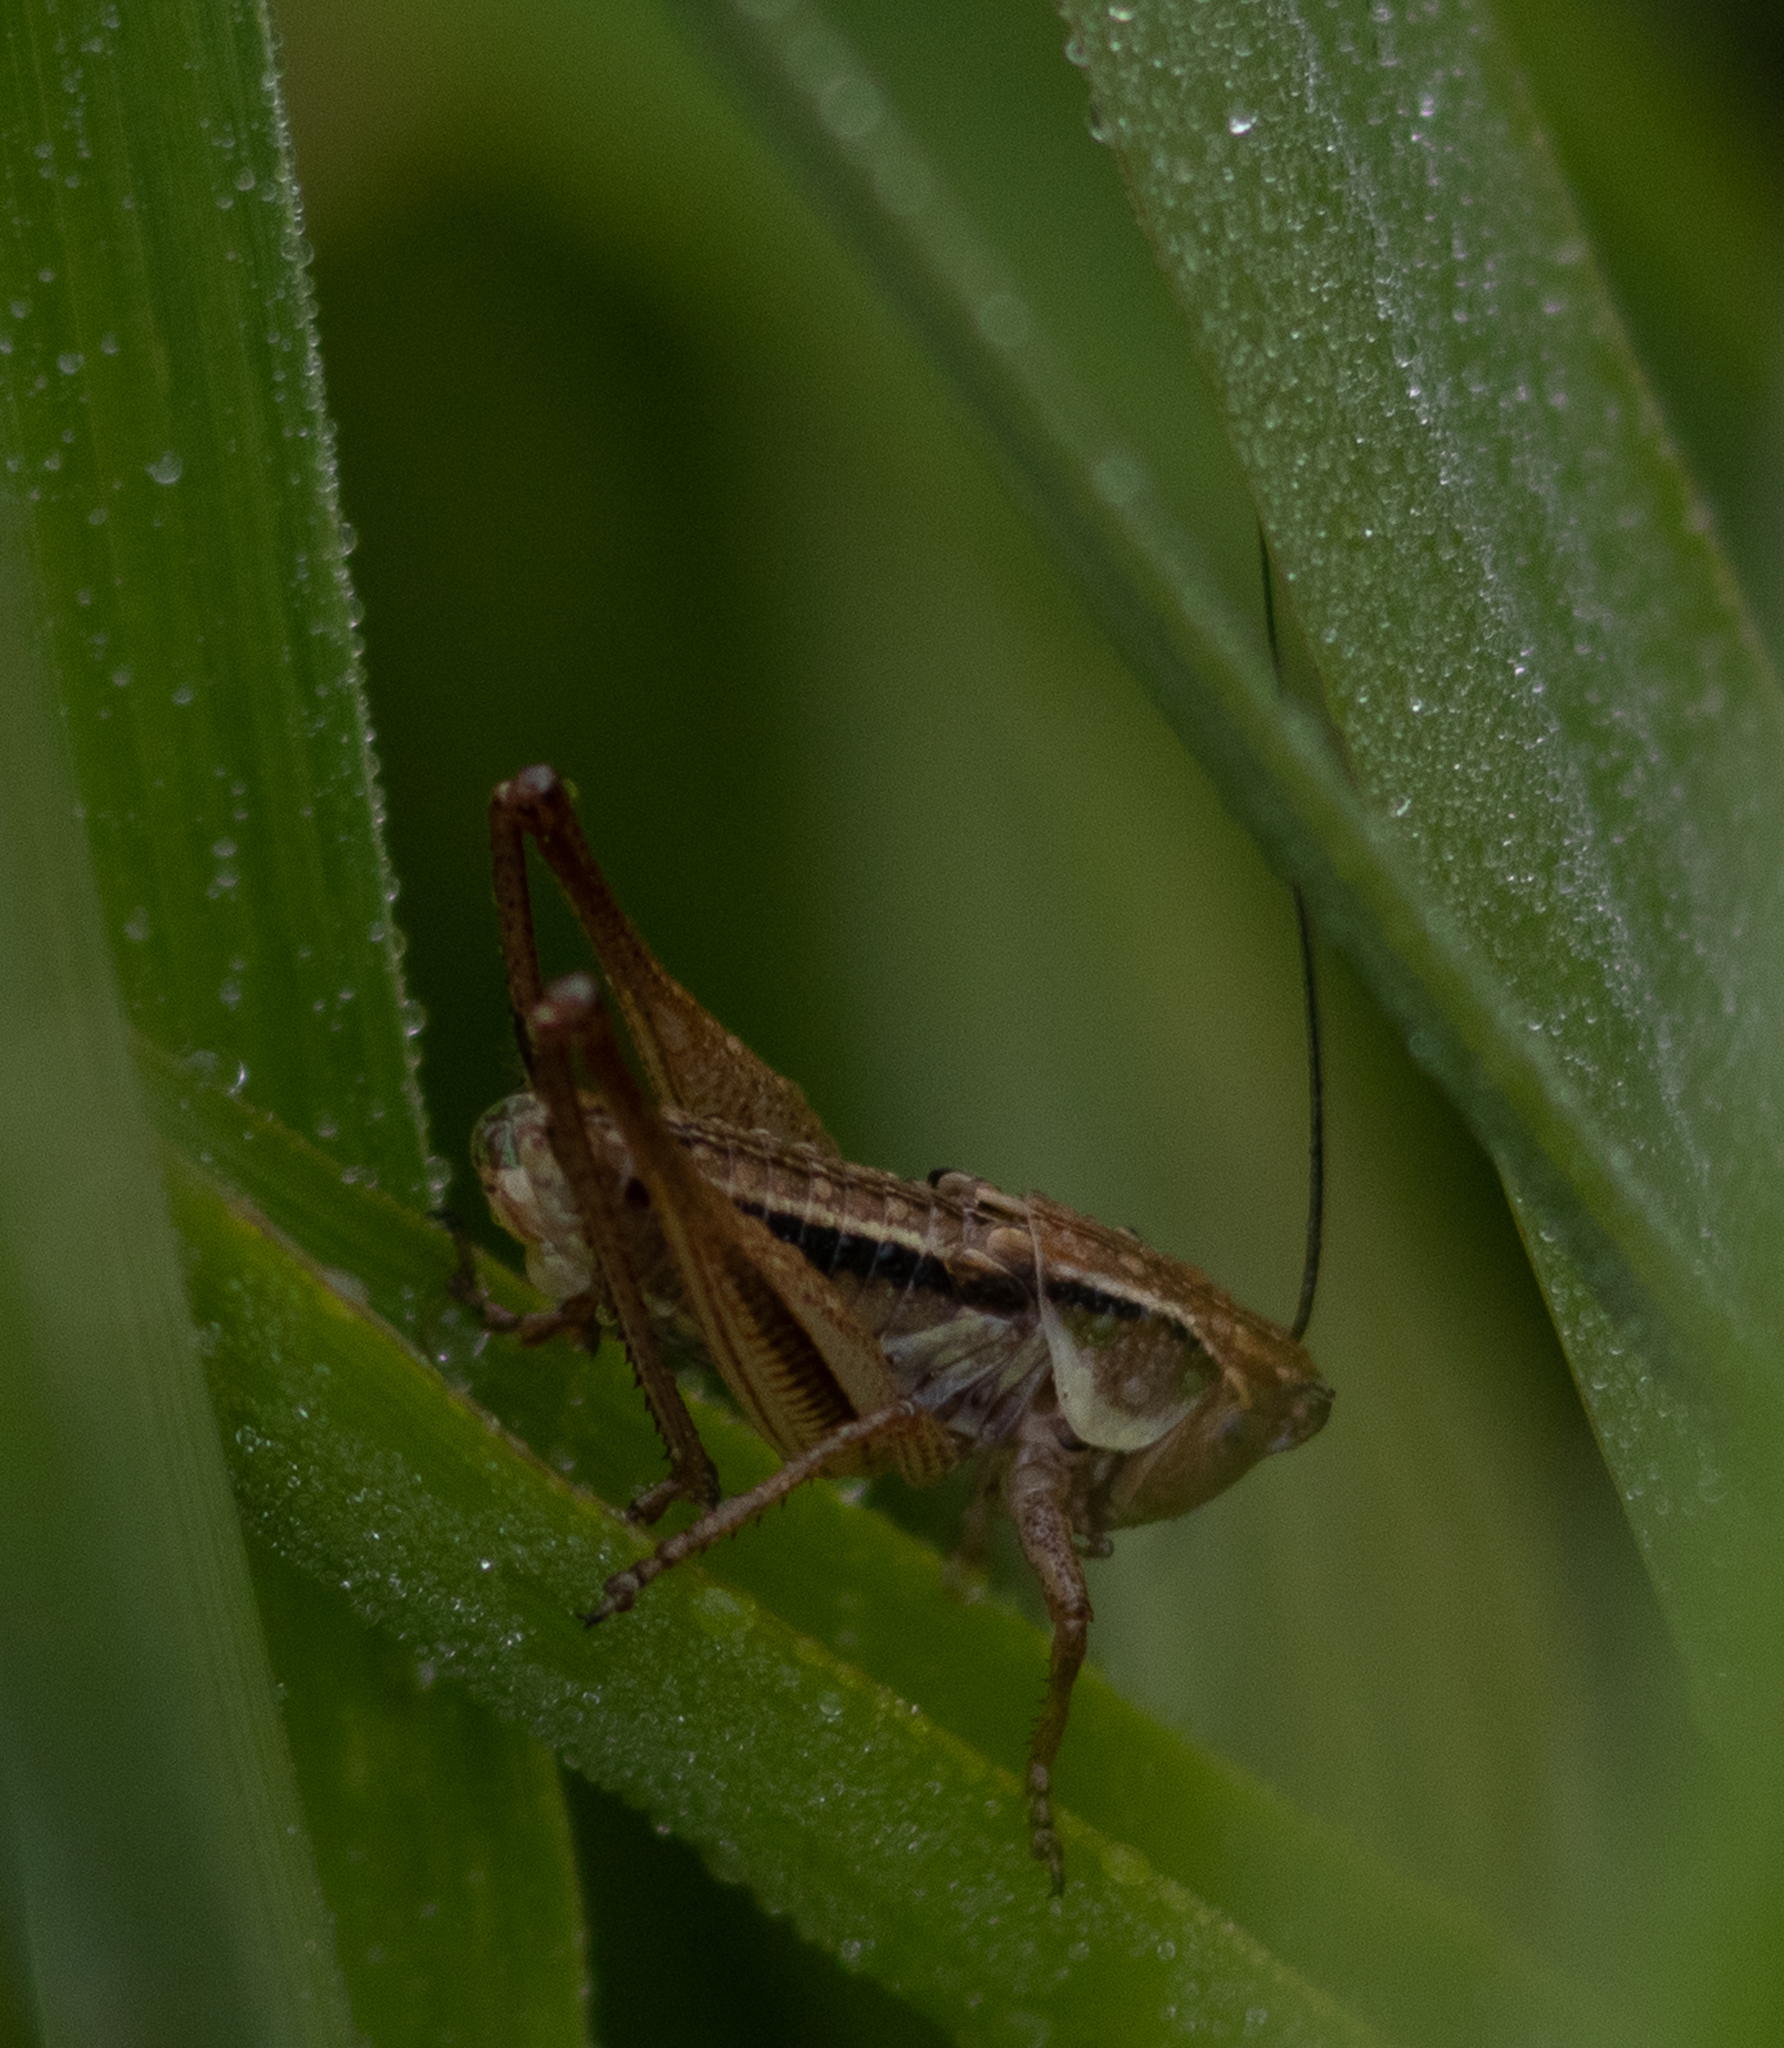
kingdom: Animalia
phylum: Arthropoda
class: Insecta
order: Orthoptera
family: Tettigoniidae
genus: Roeseliana
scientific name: Roeseliana roeselii
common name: Roesel's bush cricket
